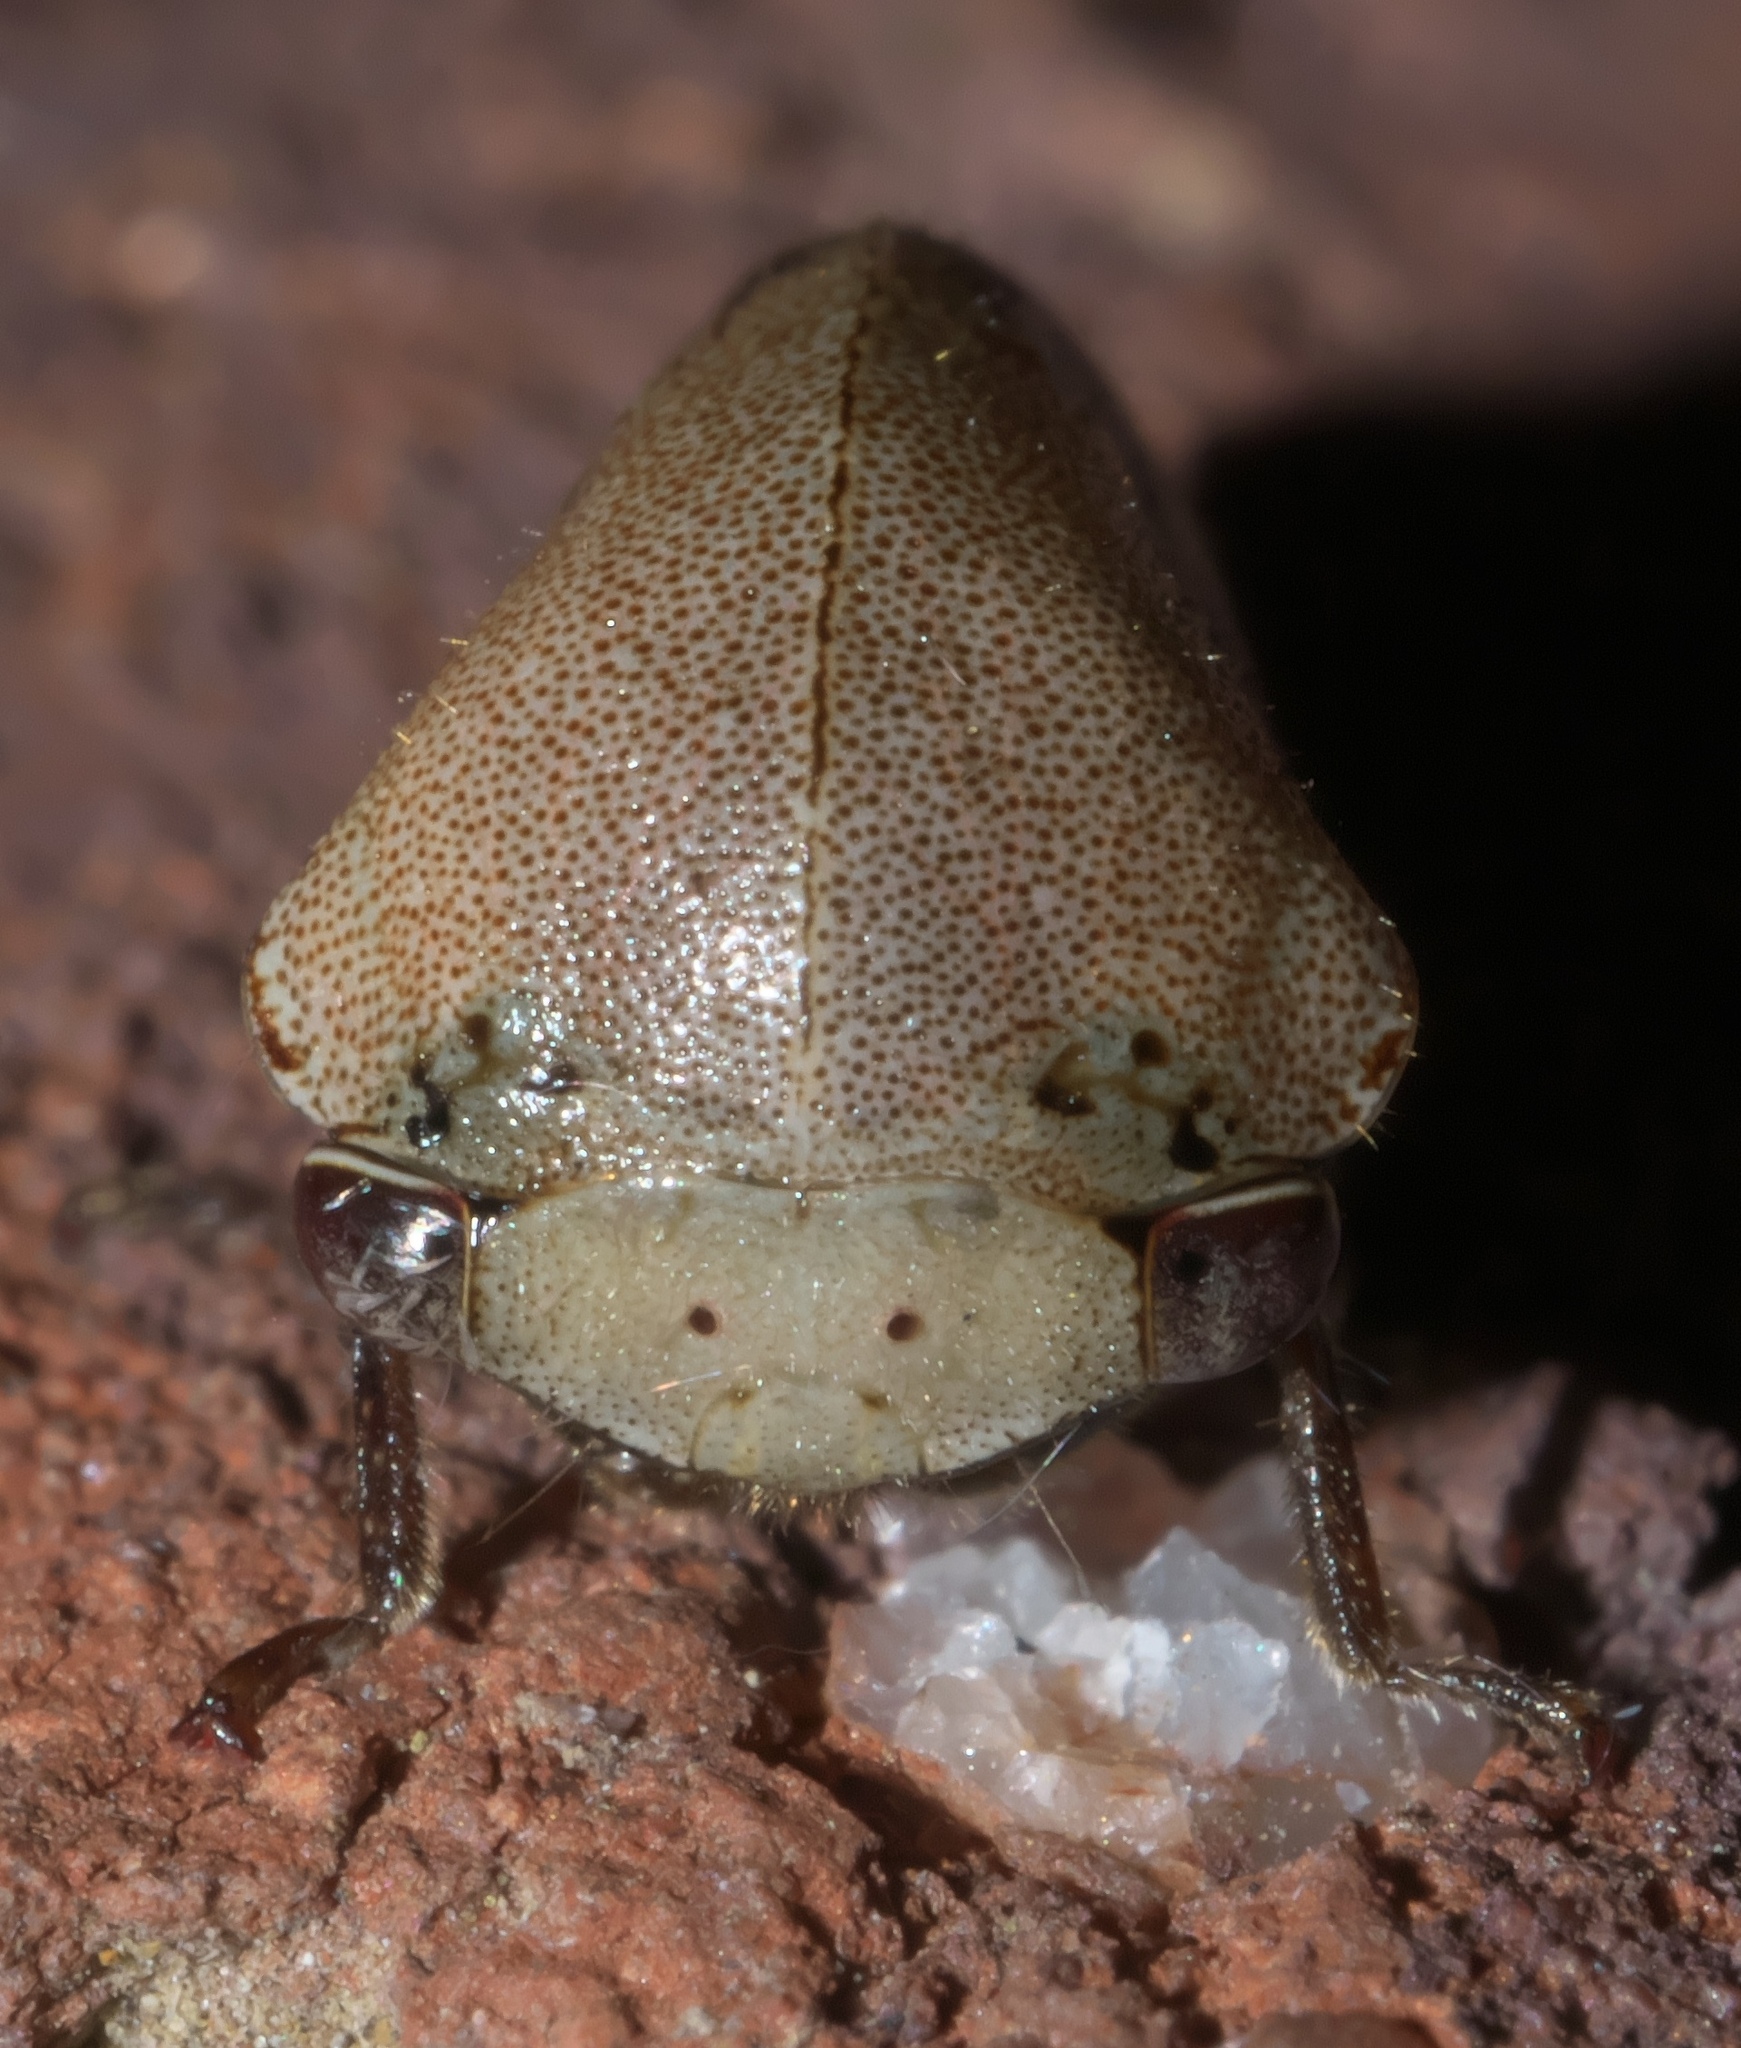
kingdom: Animalia
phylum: Arthropoda
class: Insecta
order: Hemiptera
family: Membracidae
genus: Carynota
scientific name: Carynota mera
